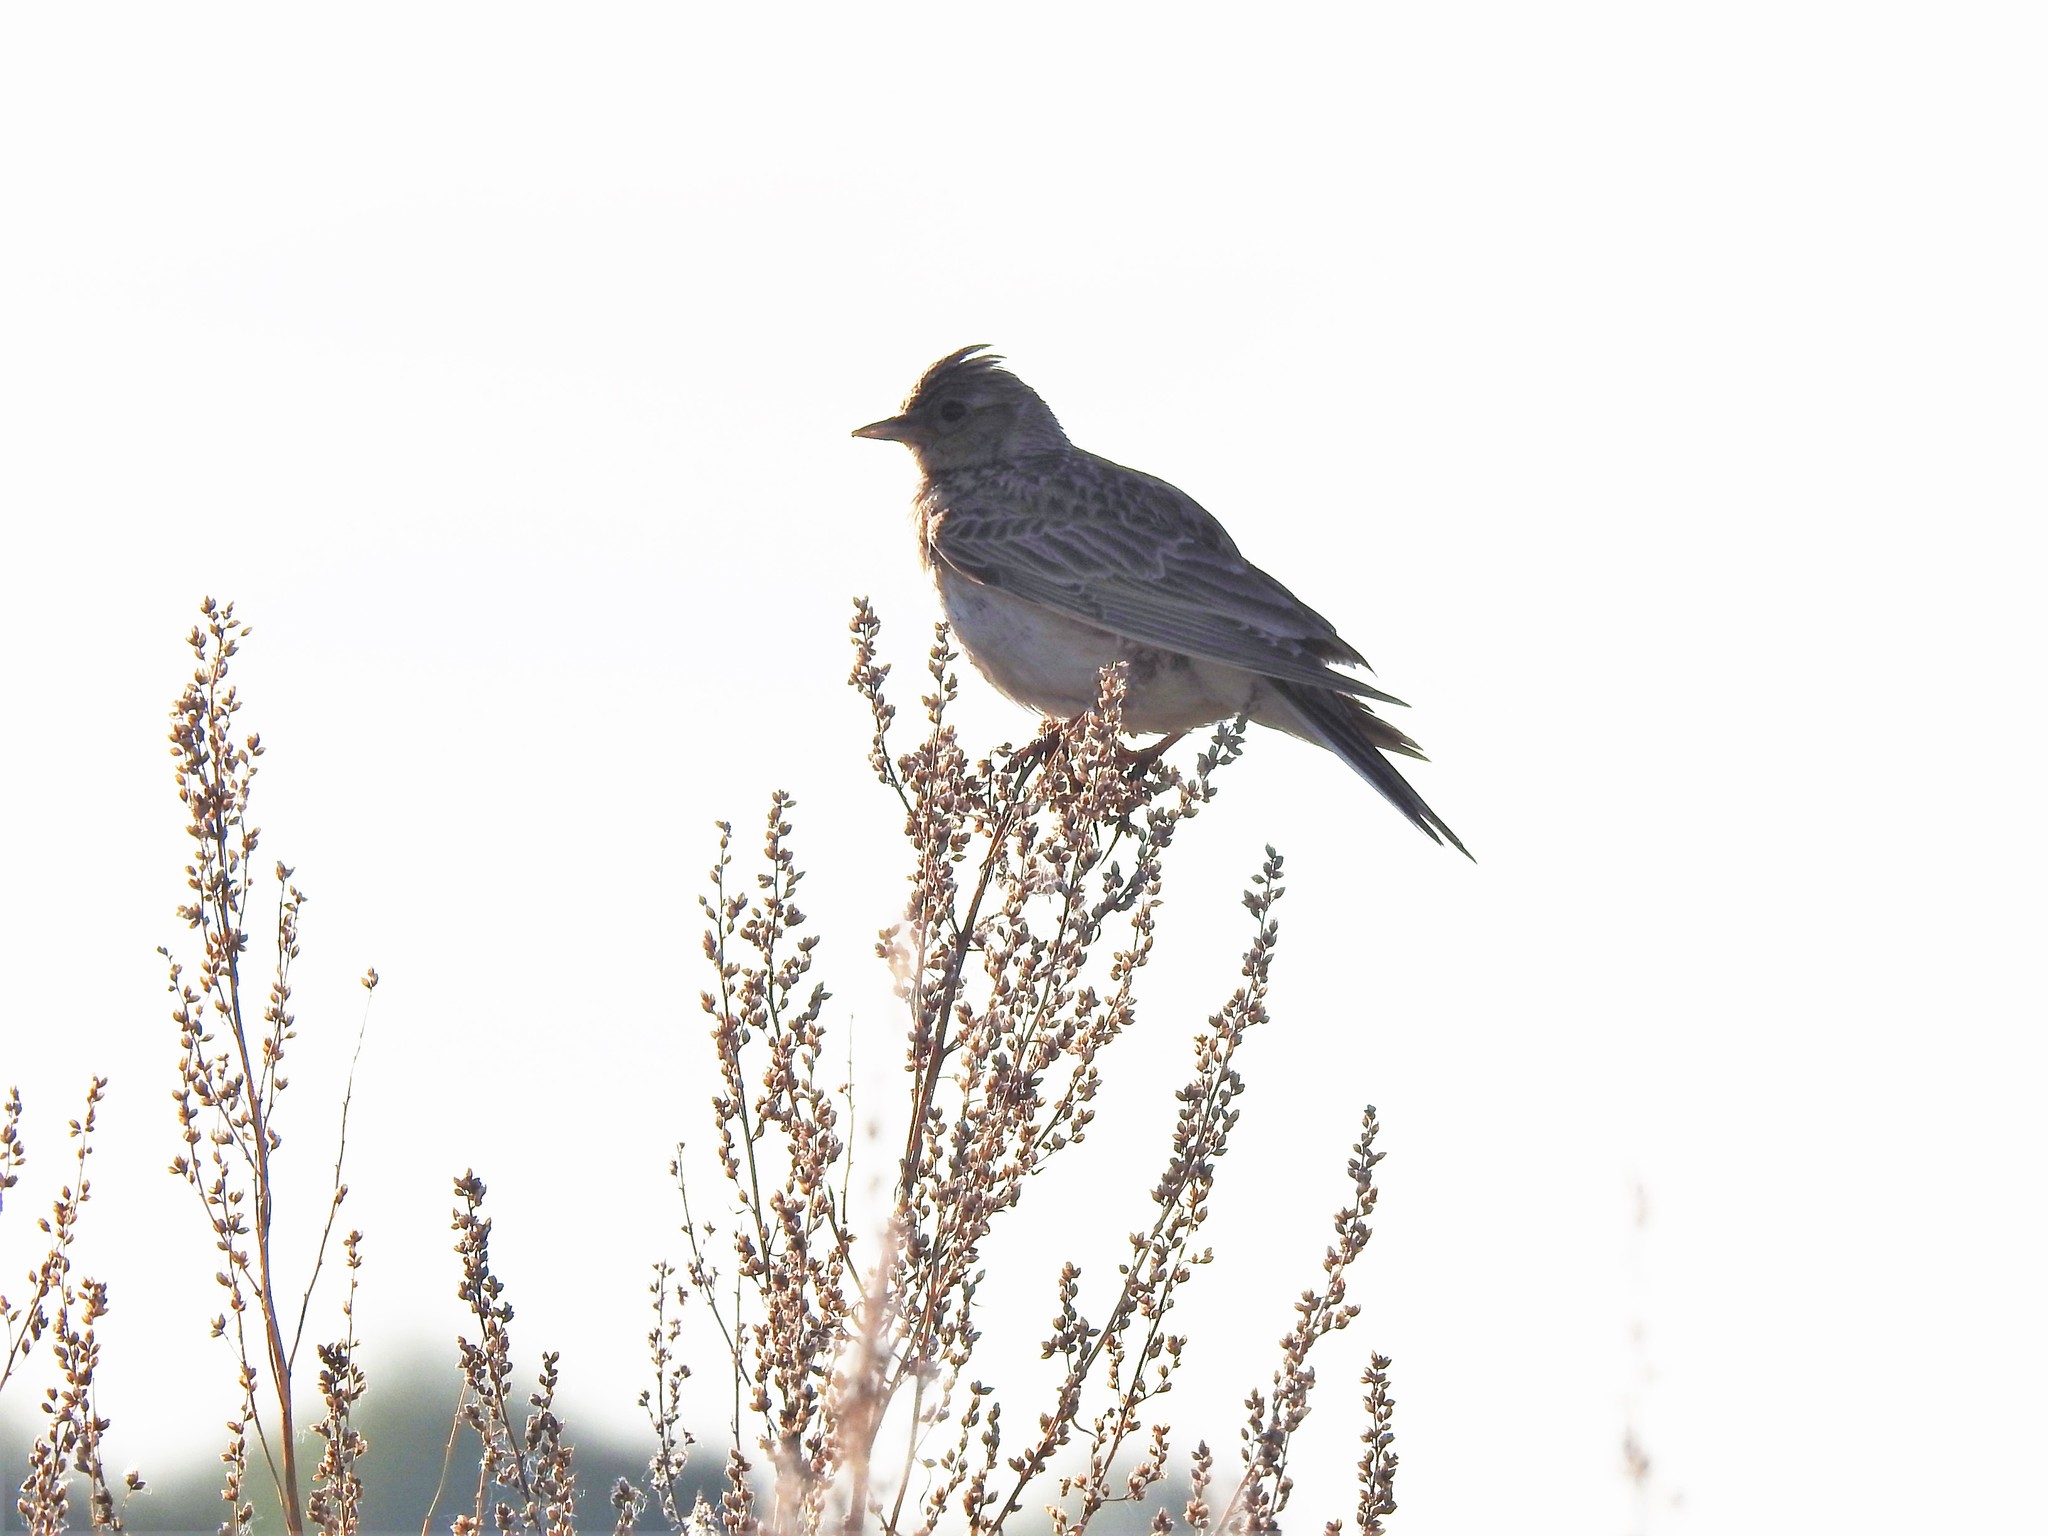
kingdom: Animalia
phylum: Chordata
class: Aves
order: Passeriformes
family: Alaudidae
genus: Alauda
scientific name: Alauda arvensis
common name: Eurasian skylark
